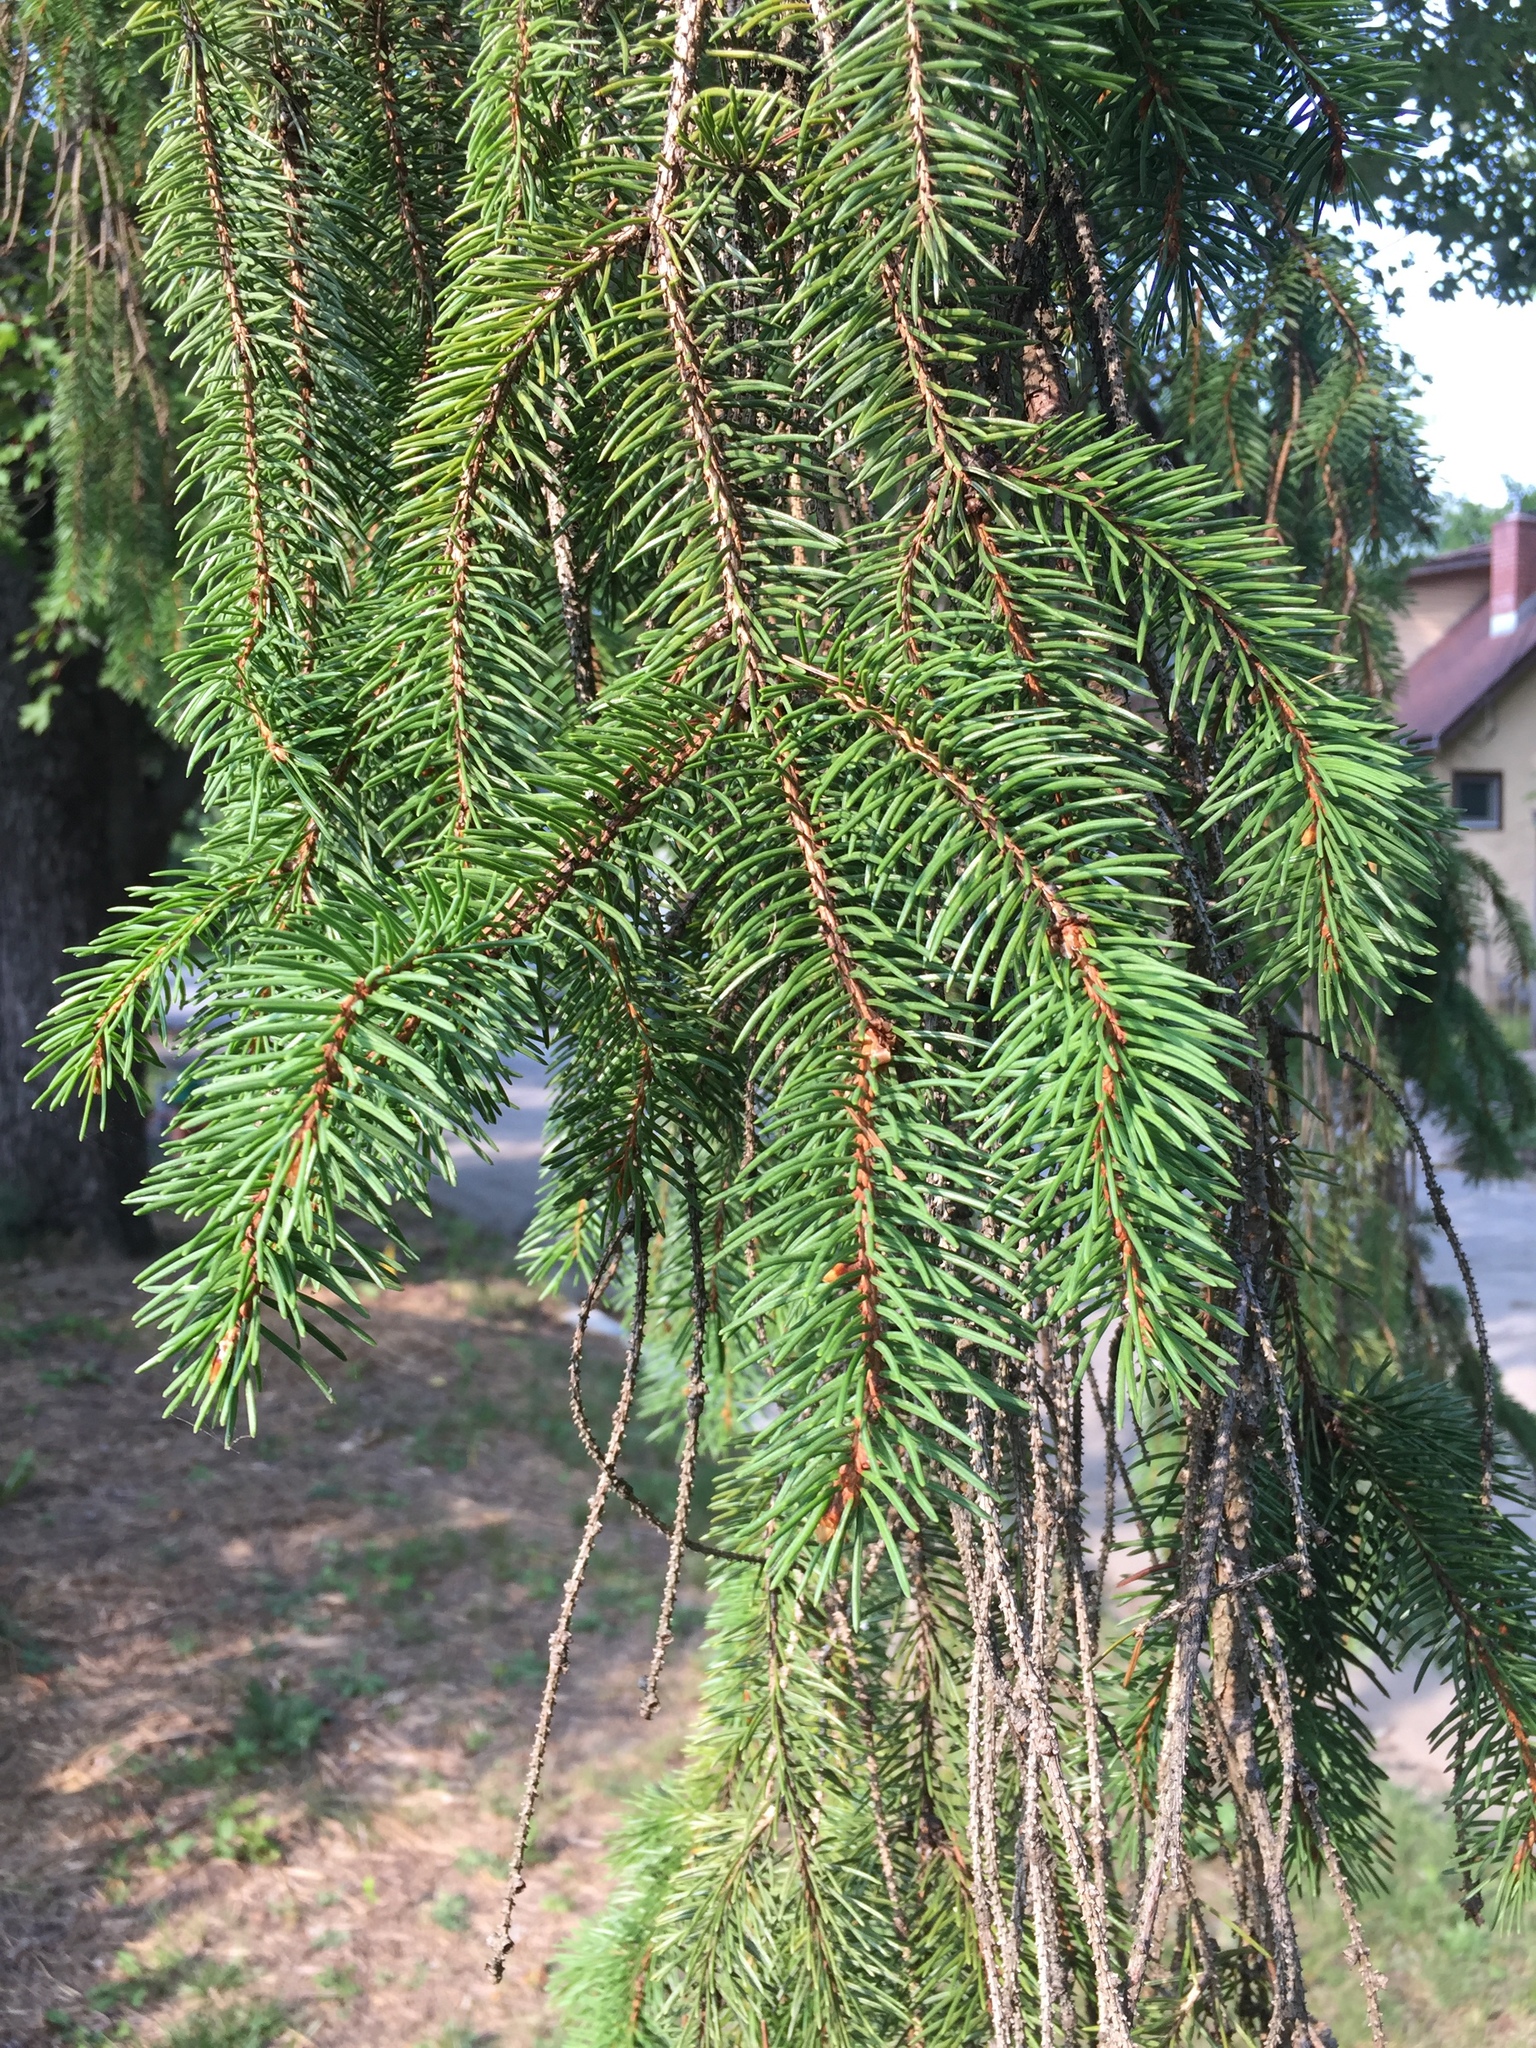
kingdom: Plantae
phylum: Tracheophyta
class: Pinopsida
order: Pinales
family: Pinaceae
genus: Picea
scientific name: Picea abies
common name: Norway spruce
